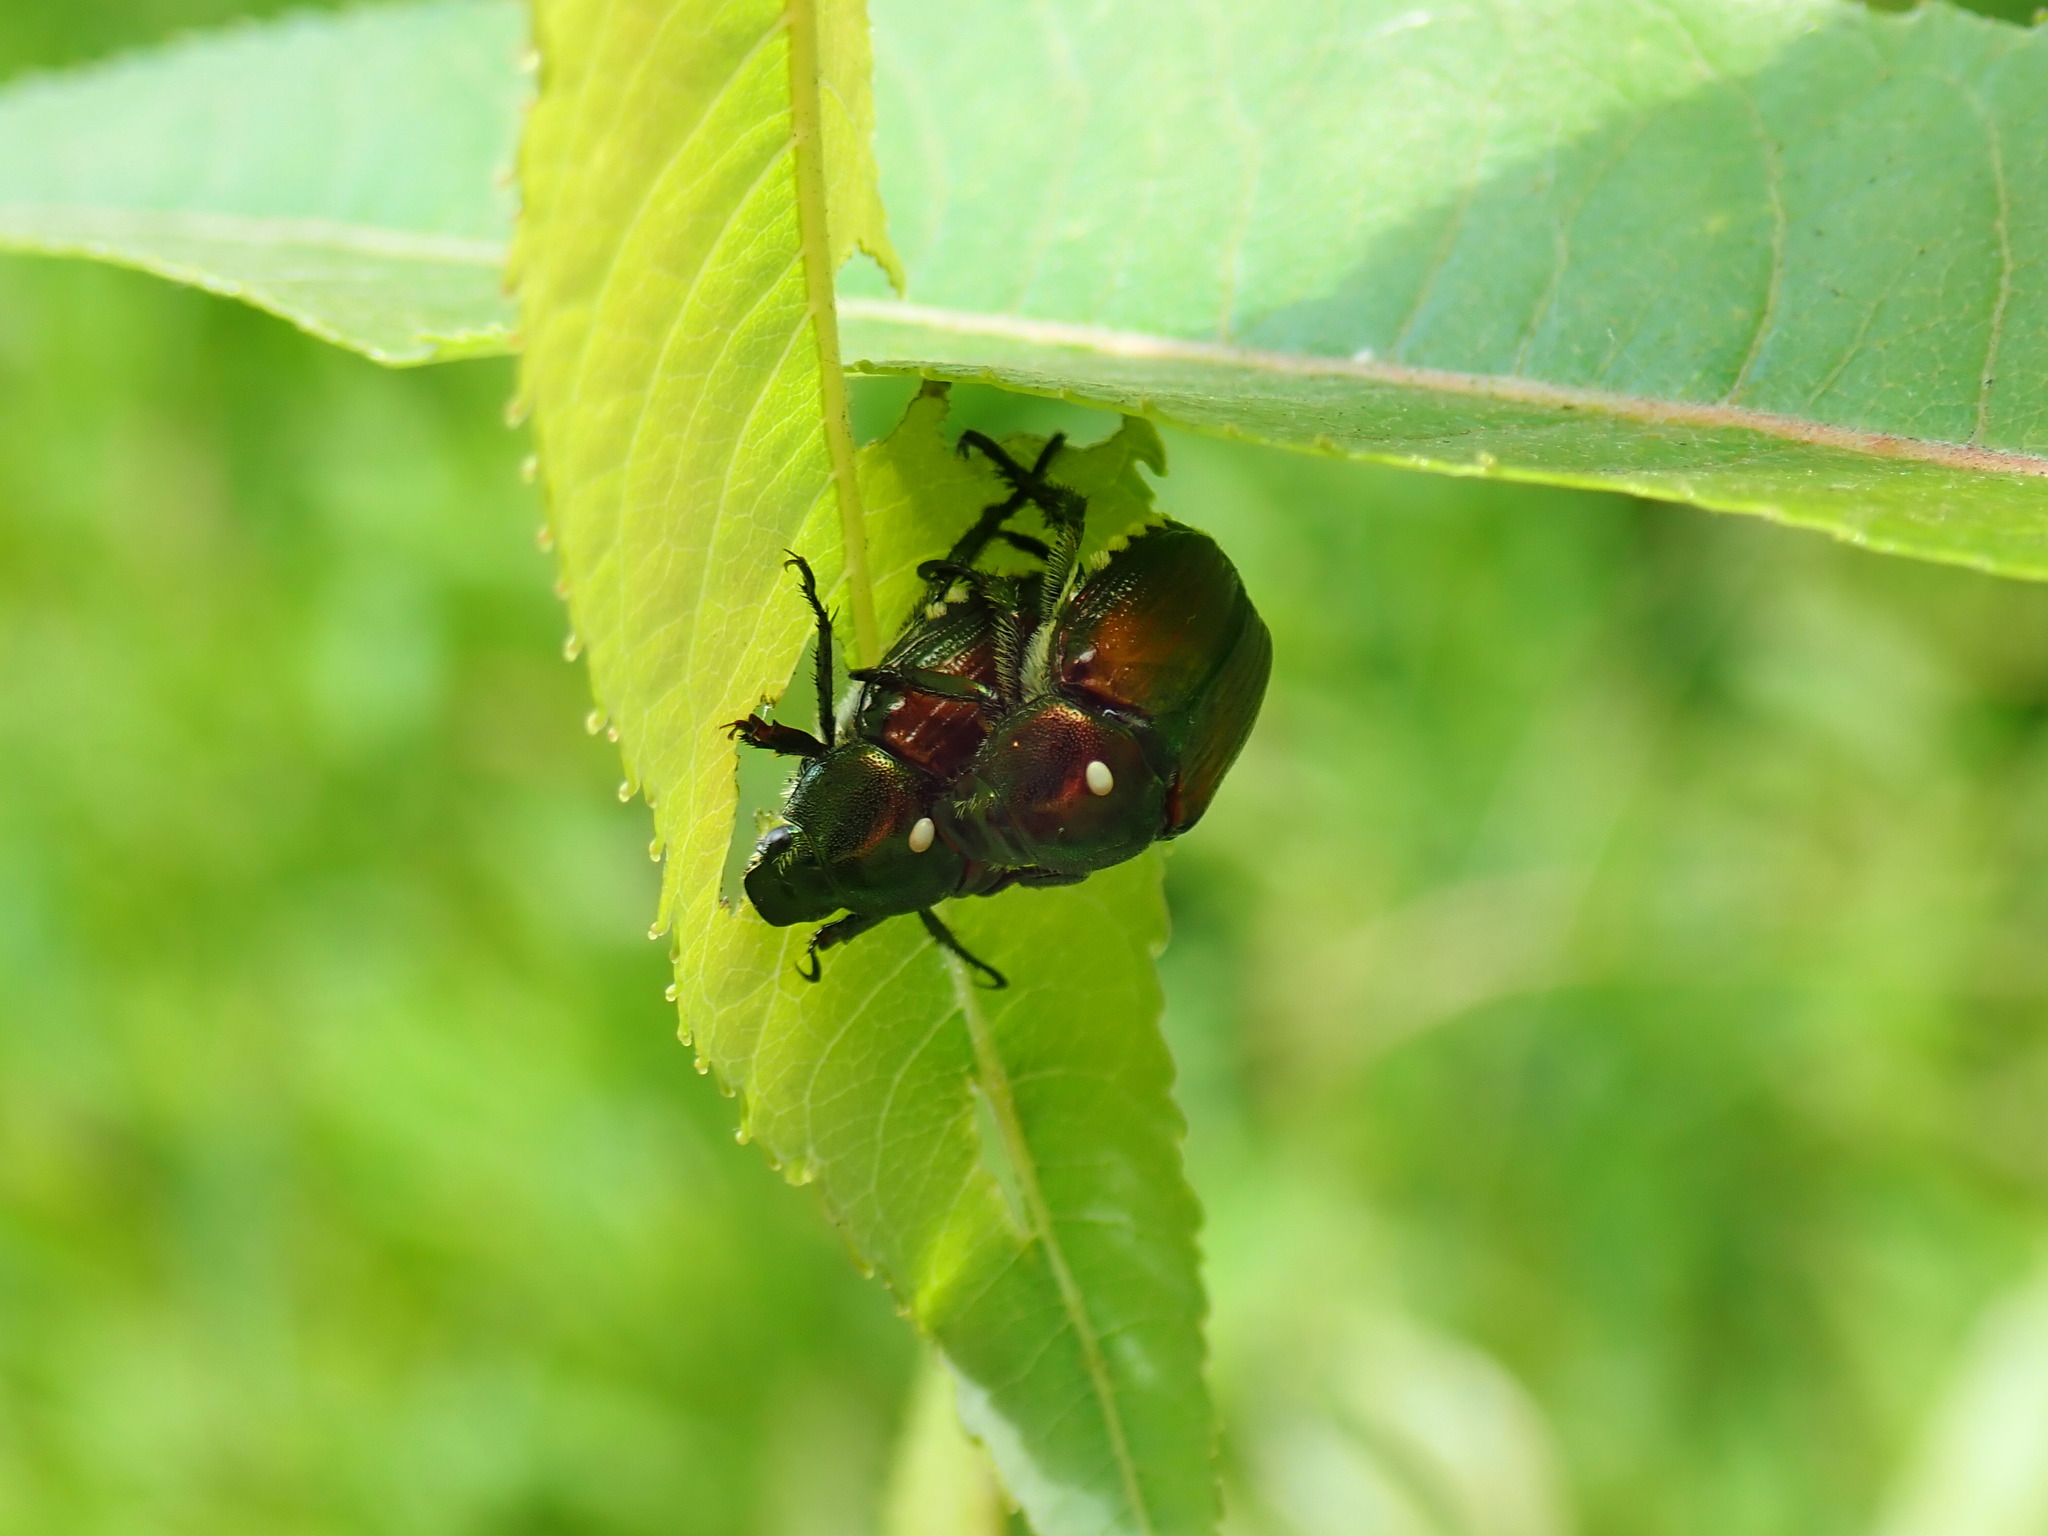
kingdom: Animalia
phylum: Arthropoda
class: Insecta
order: Diptera
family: Tachinidae
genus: Istocheta
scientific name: Istocheta aldrichi
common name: Parasitic wasp
